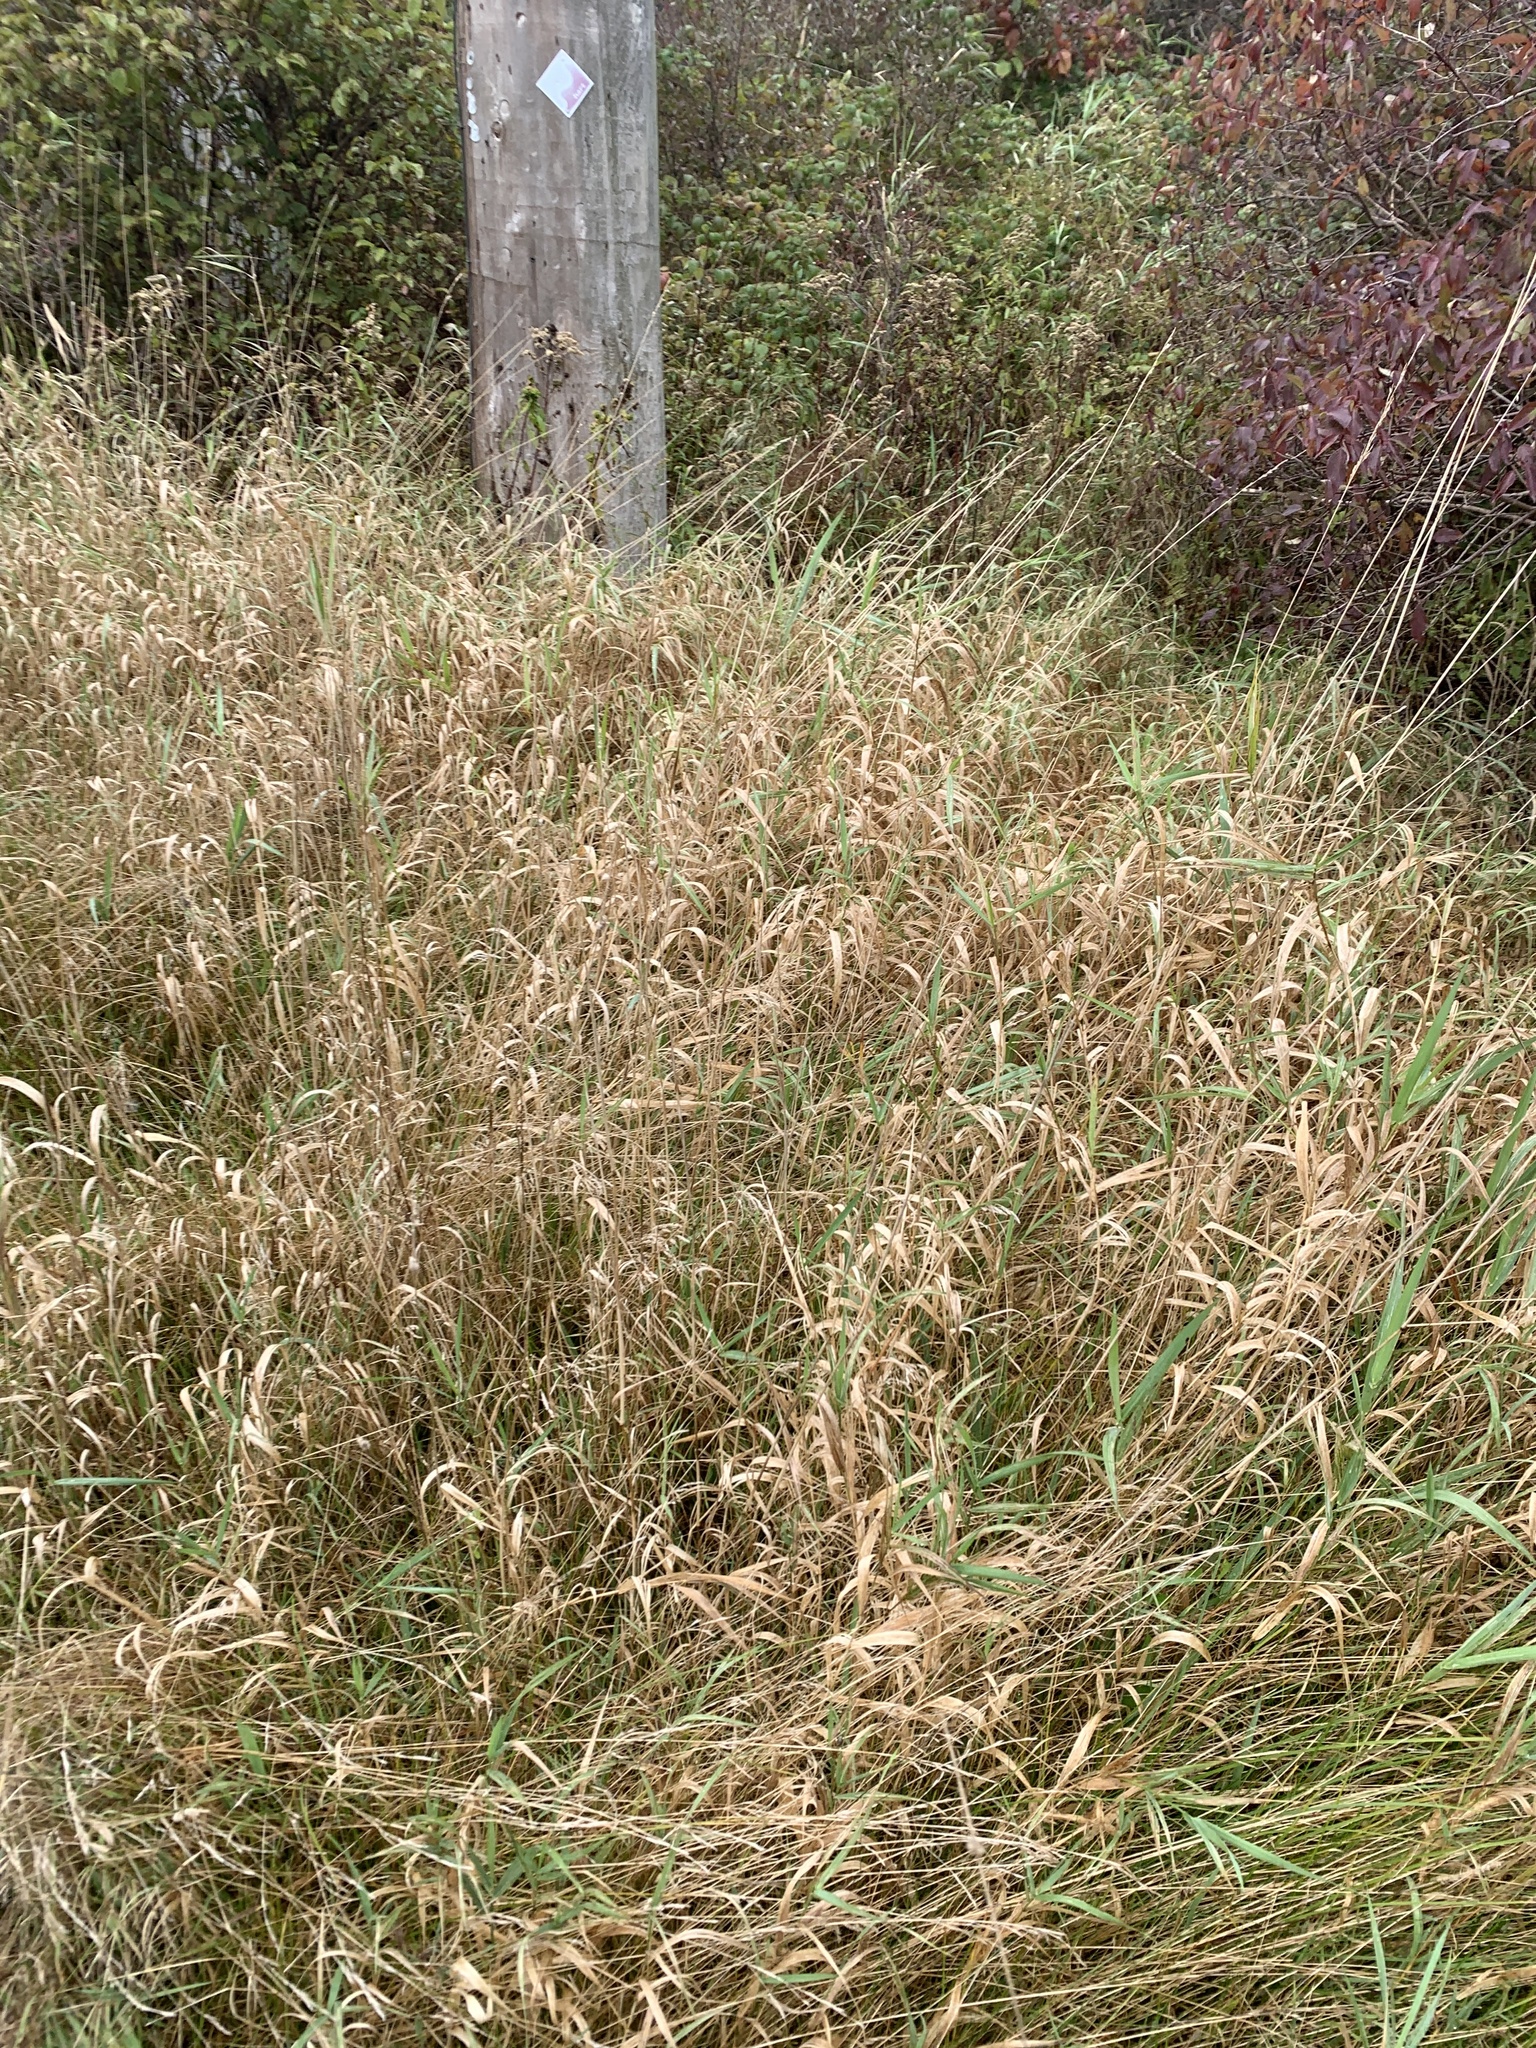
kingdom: Plantae
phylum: Tracheophyta
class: Liliopsida
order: Poales
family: Poaceae
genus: Phalaris
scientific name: Phalaris arundinacea
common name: Reed canary-grass
